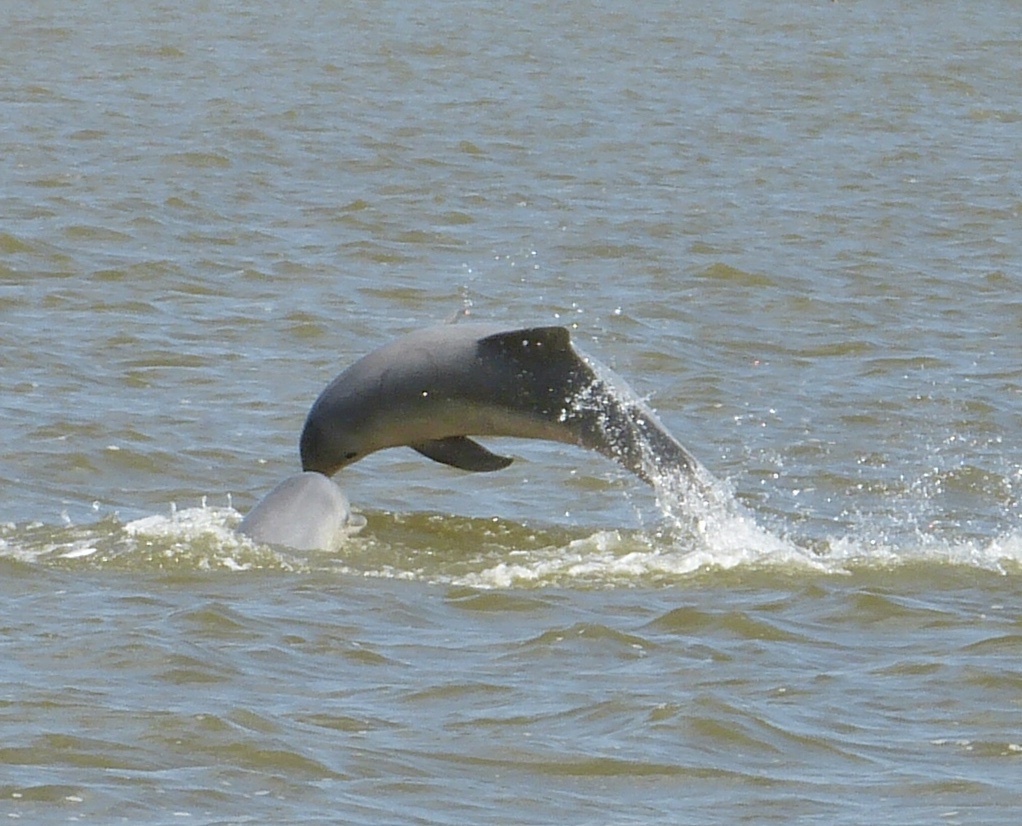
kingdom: Animalia
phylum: Chordata
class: Mammalia
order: Cetacea
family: Delphinidae
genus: Sotalia
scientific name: Sotalia guianensis
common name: Guiana dolphin
